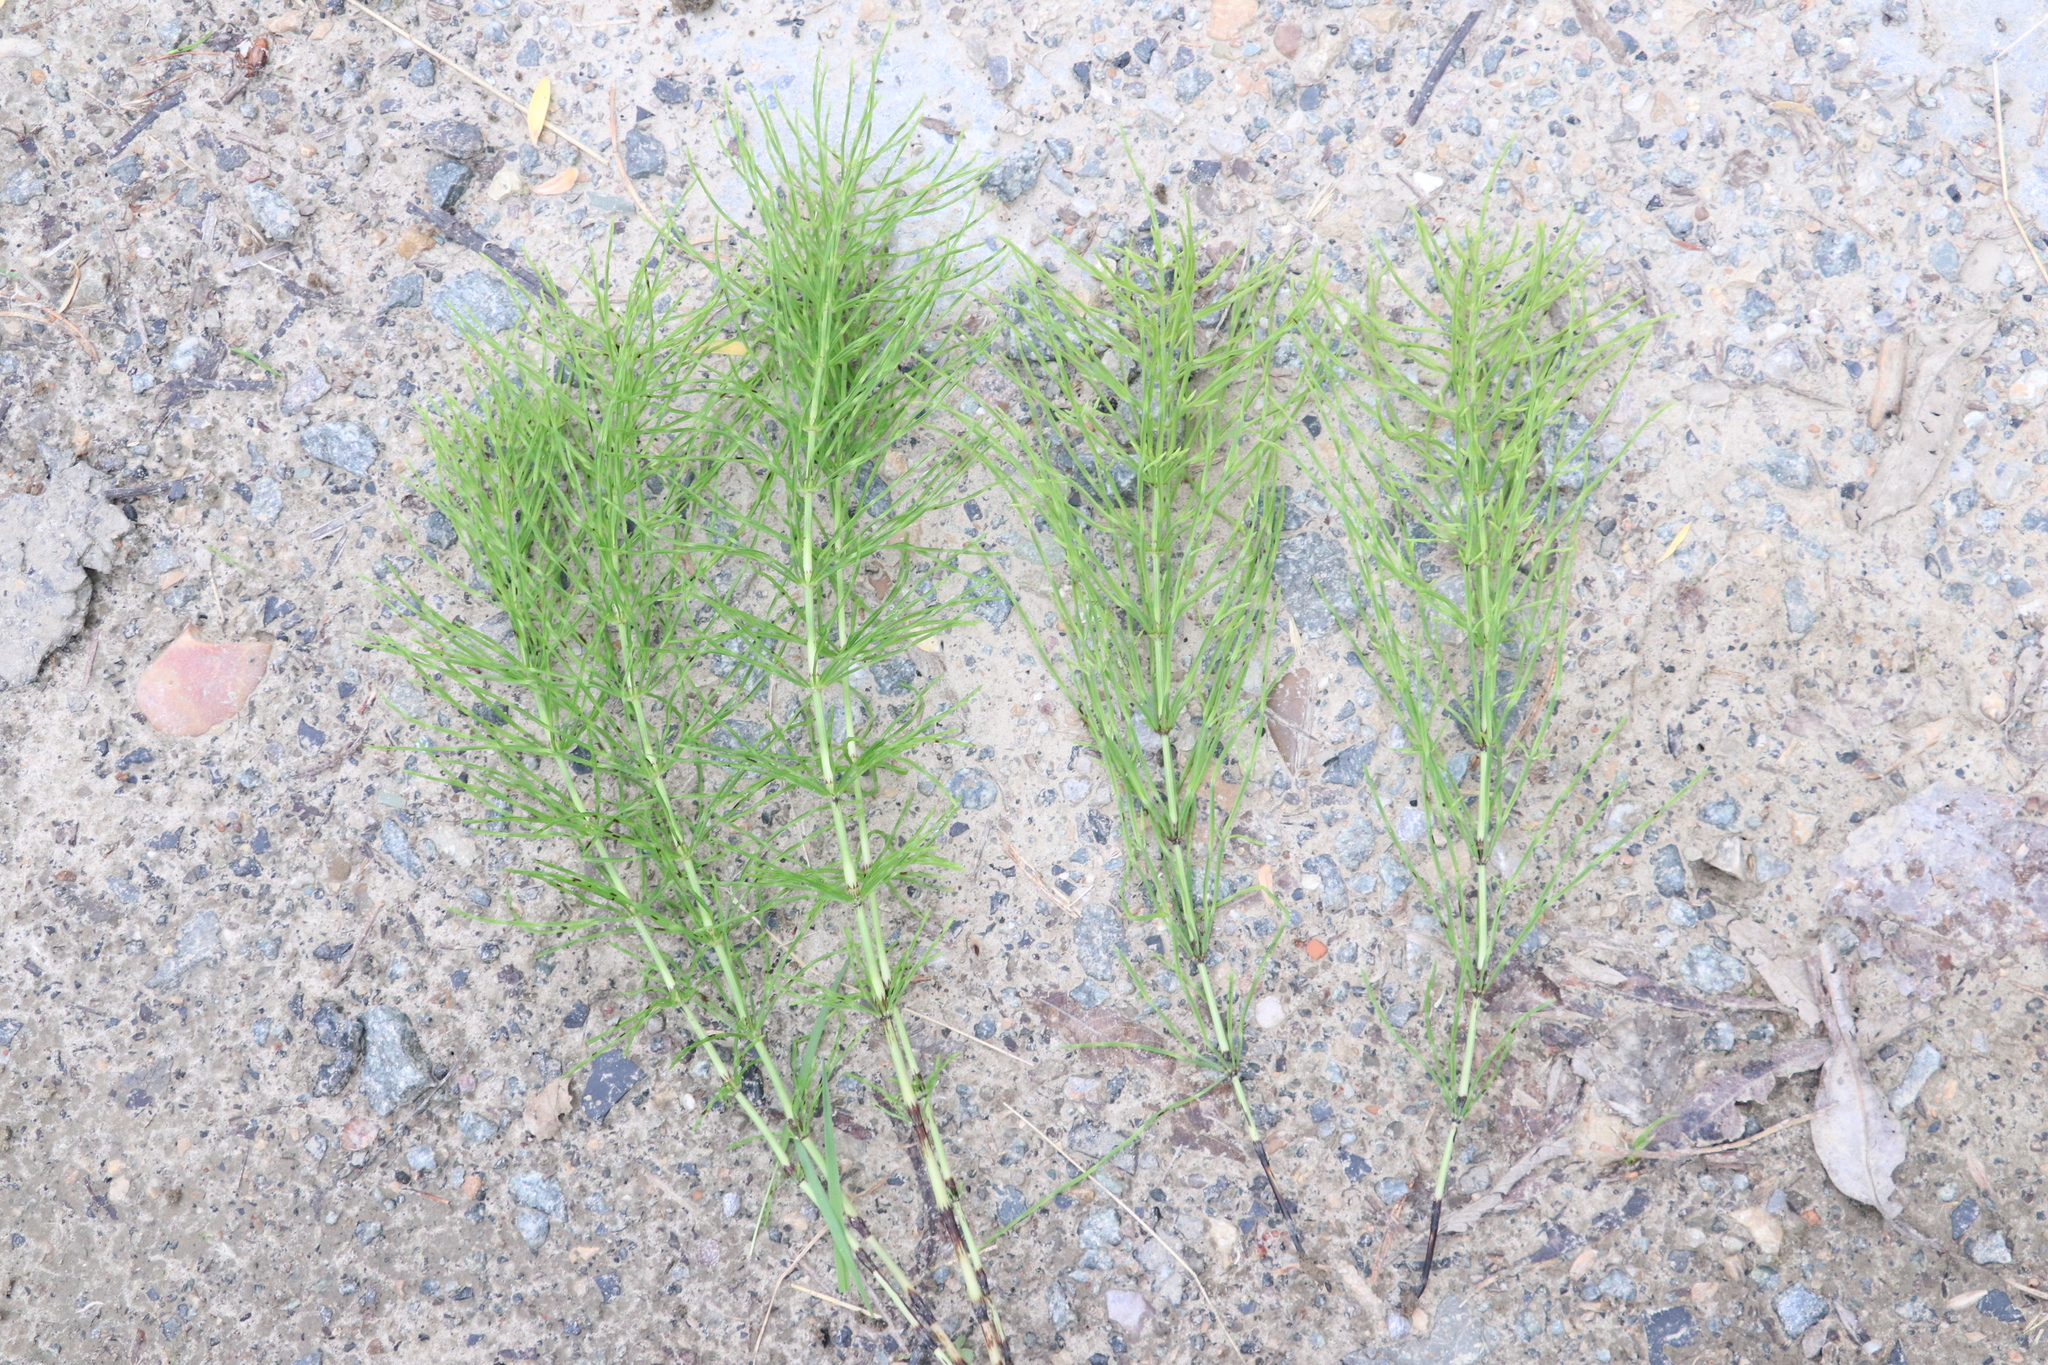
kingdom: Plantae
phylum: Tracheophyta
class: Polypodiopsida
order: Equisetales
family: Equisetaceae
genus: Equisetum
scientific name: Equisetum arvense
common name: Field horsetail
